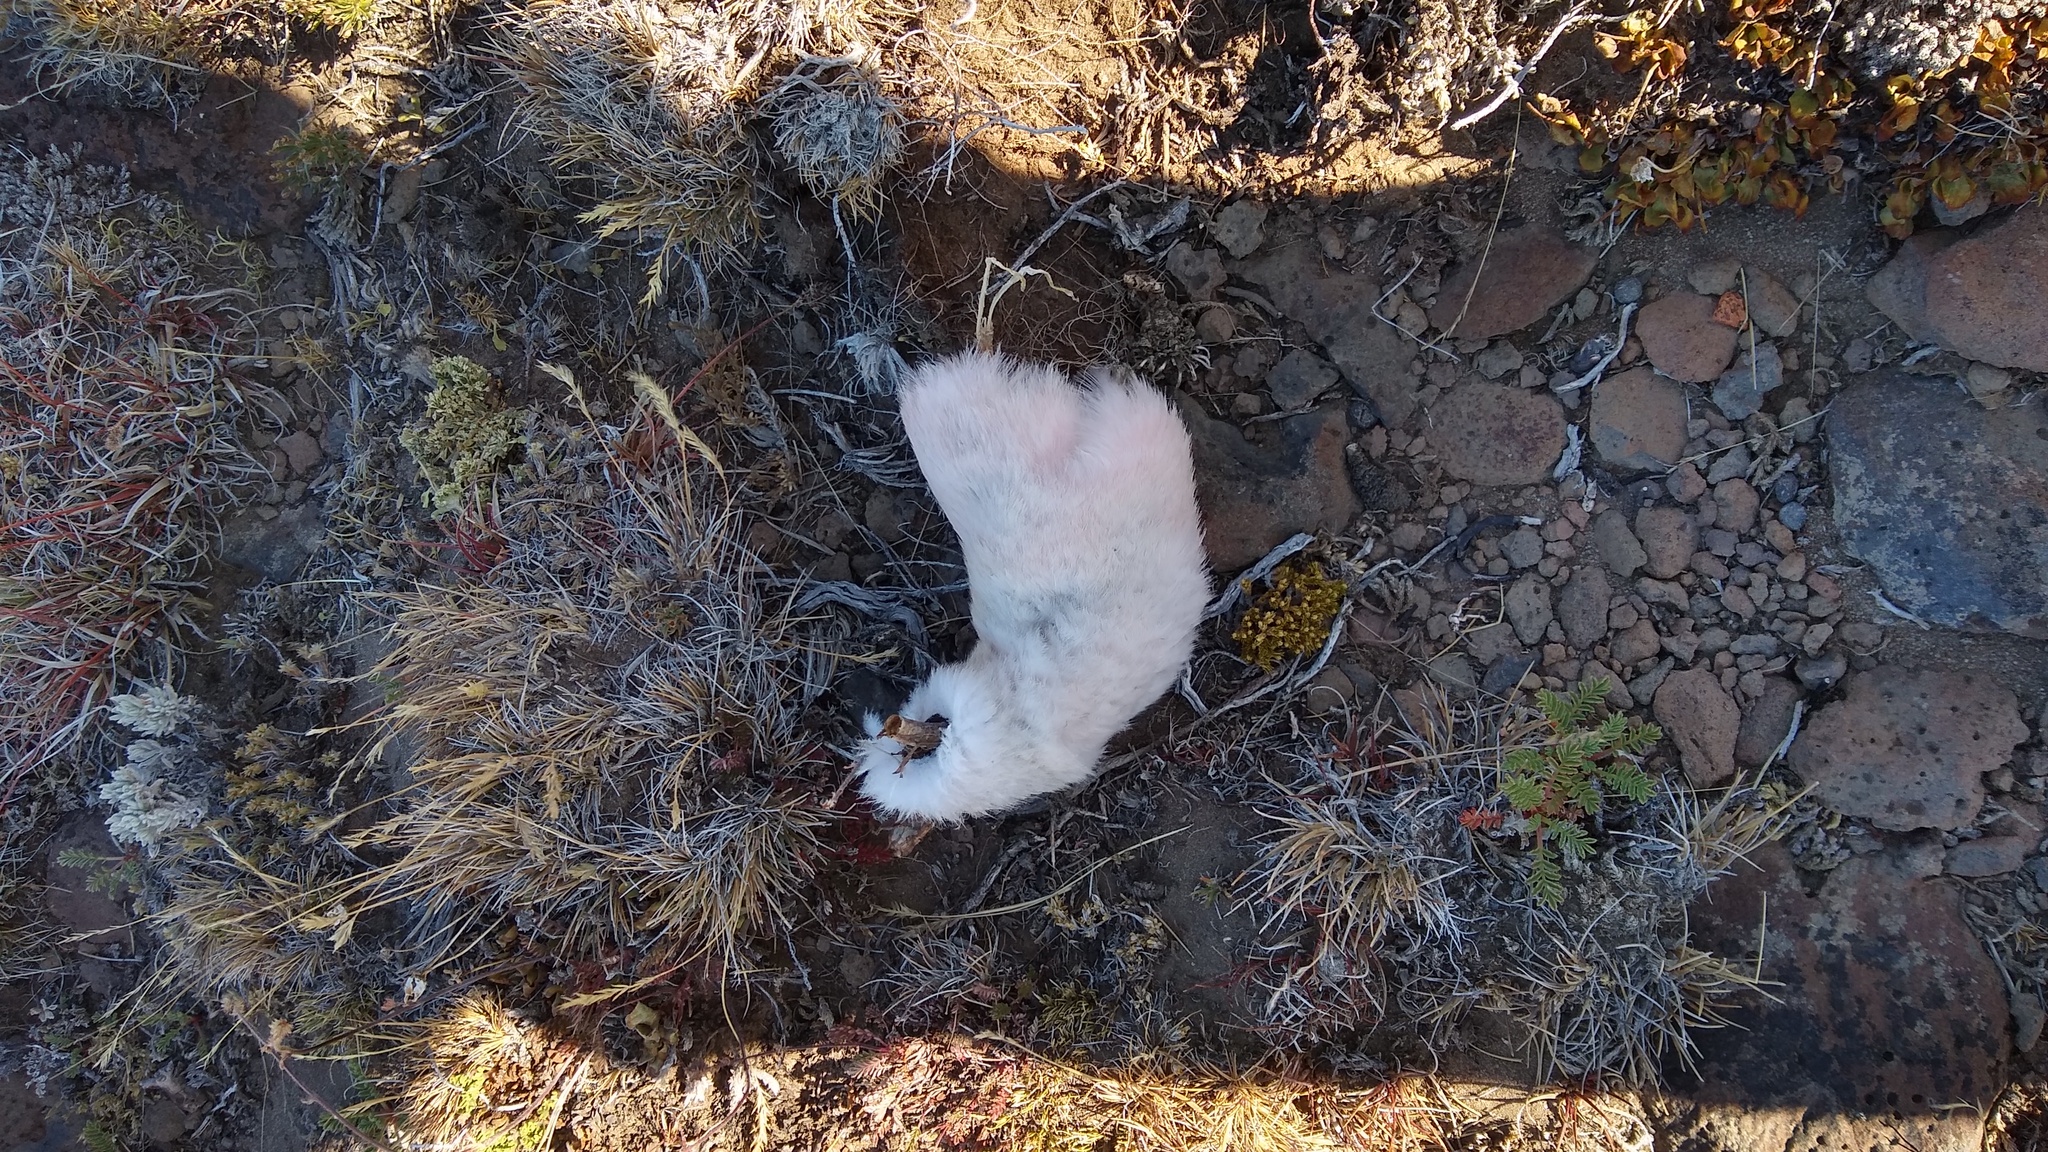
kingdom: Animalia
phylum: Chordata
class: Aves
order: Phoenicopteriformes
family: Phoenicopteridae
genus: Phoenicopterus
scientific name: Phoenicopterus chilensis
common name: Chilean flamingo
